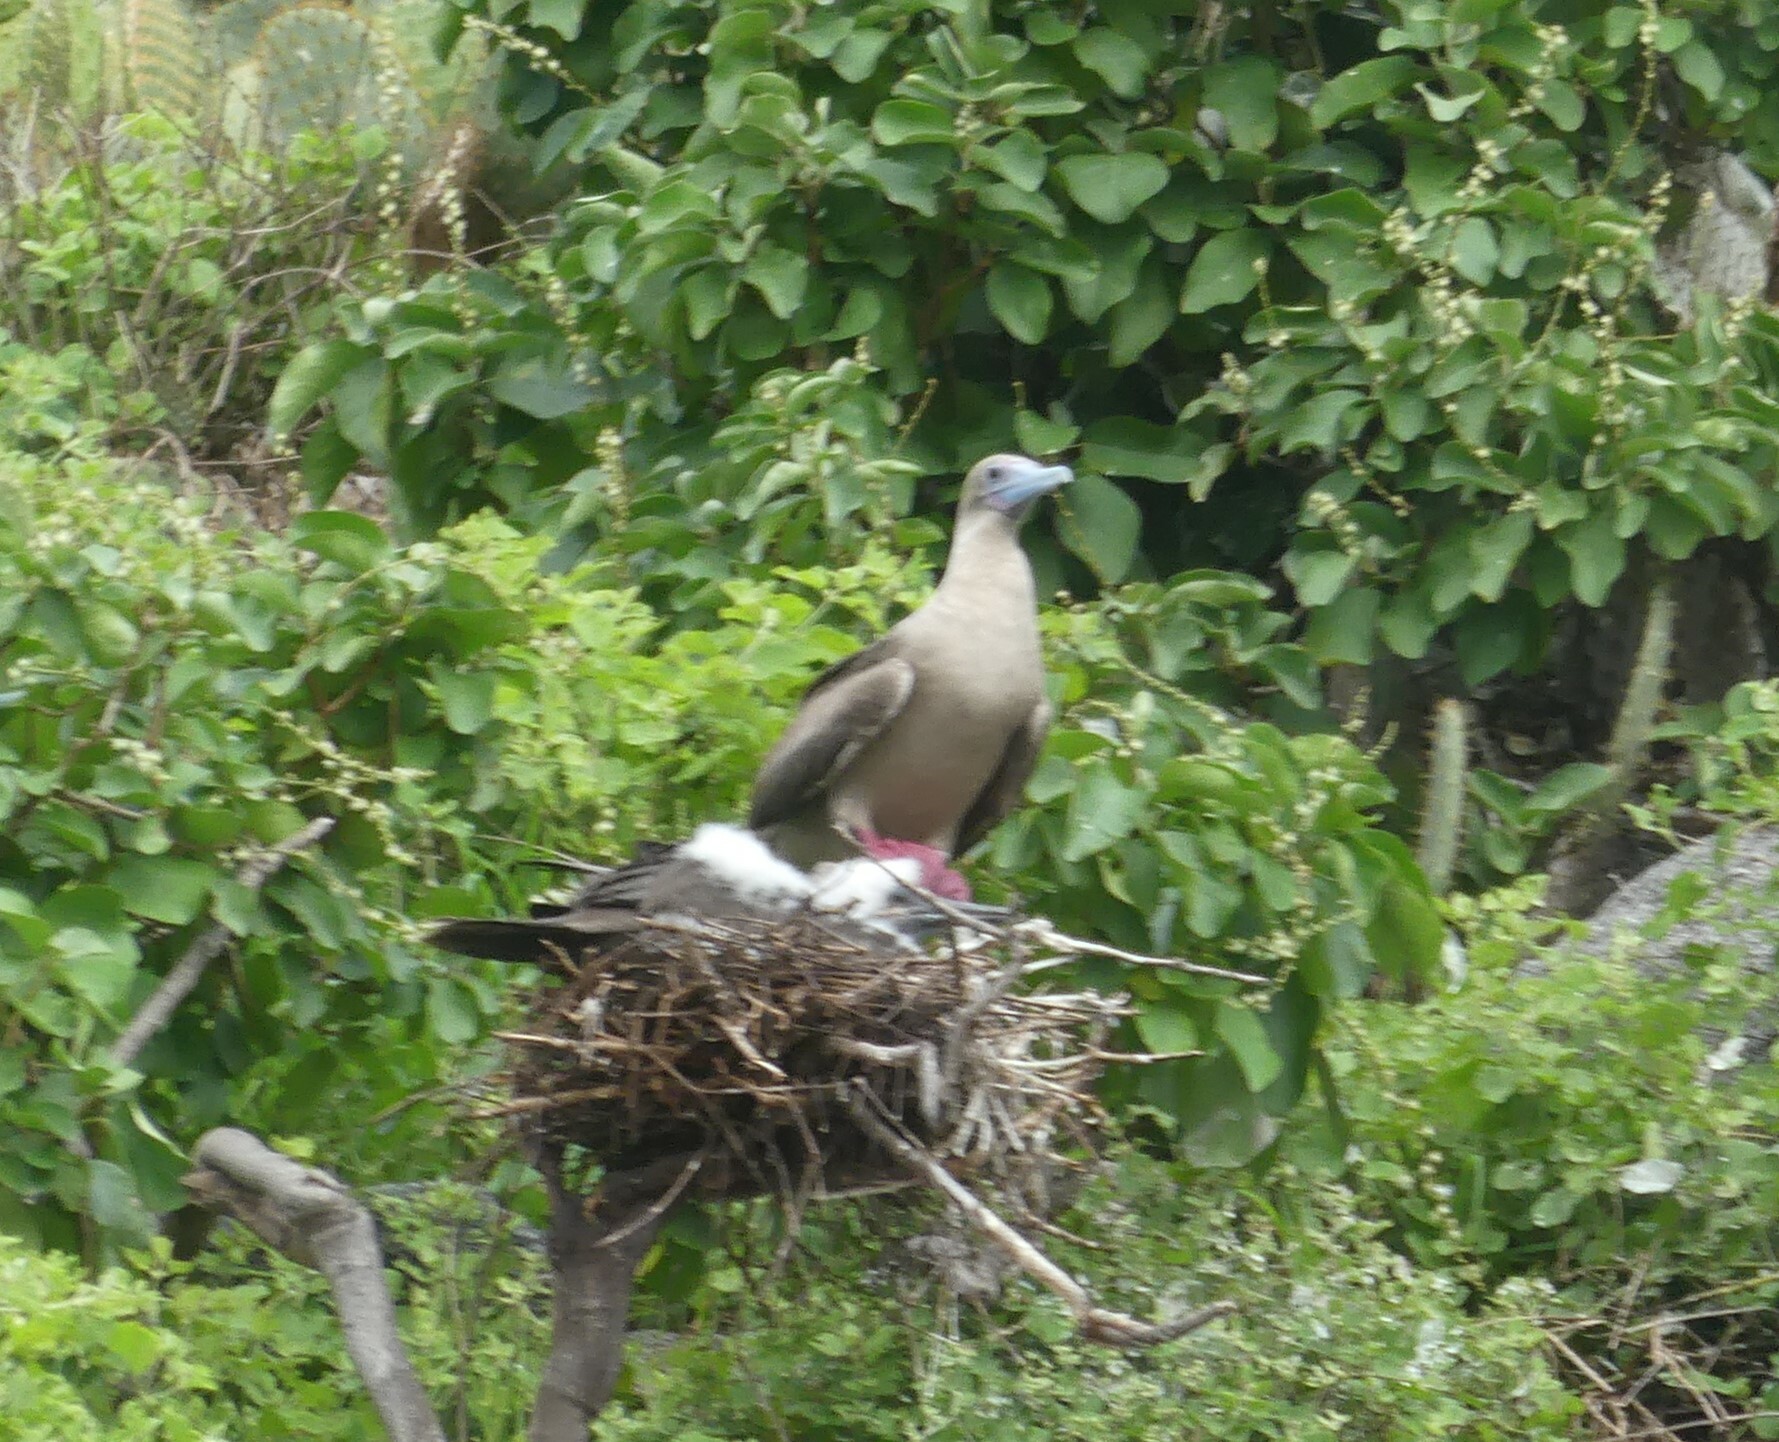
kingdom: Animalia
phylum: Chordata
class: Aves
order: Suliformes
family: Sulidae
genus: Sula
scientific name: Sula sula
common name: Red-footed booby
